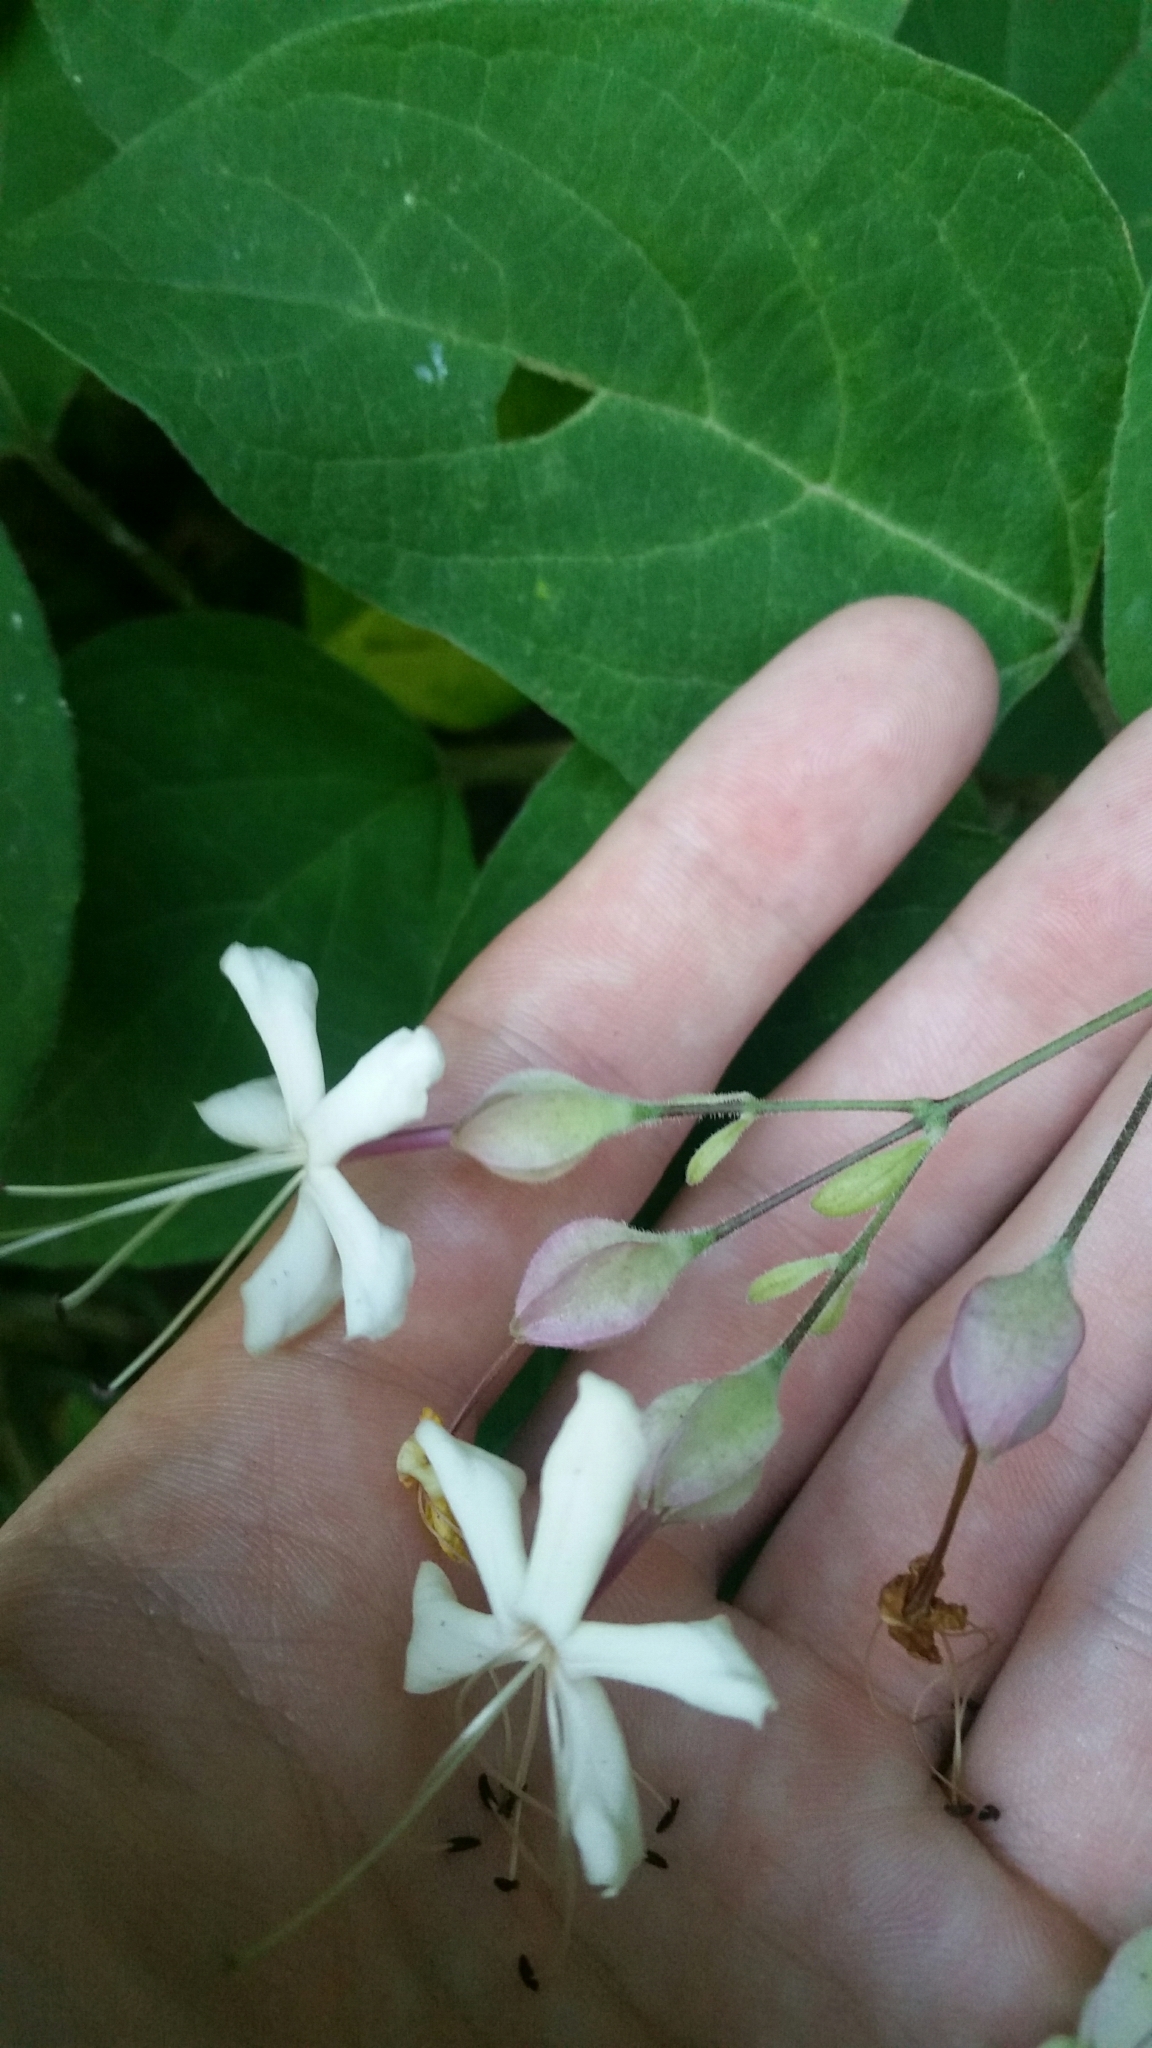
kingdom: Plantae
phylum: Tracheophyta
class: Magnoliopsida
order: Lamiales
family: Lamiaceae
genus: Clerodendrum
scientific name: Clerodendrum trichotomum
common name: Harlequin glorybower
